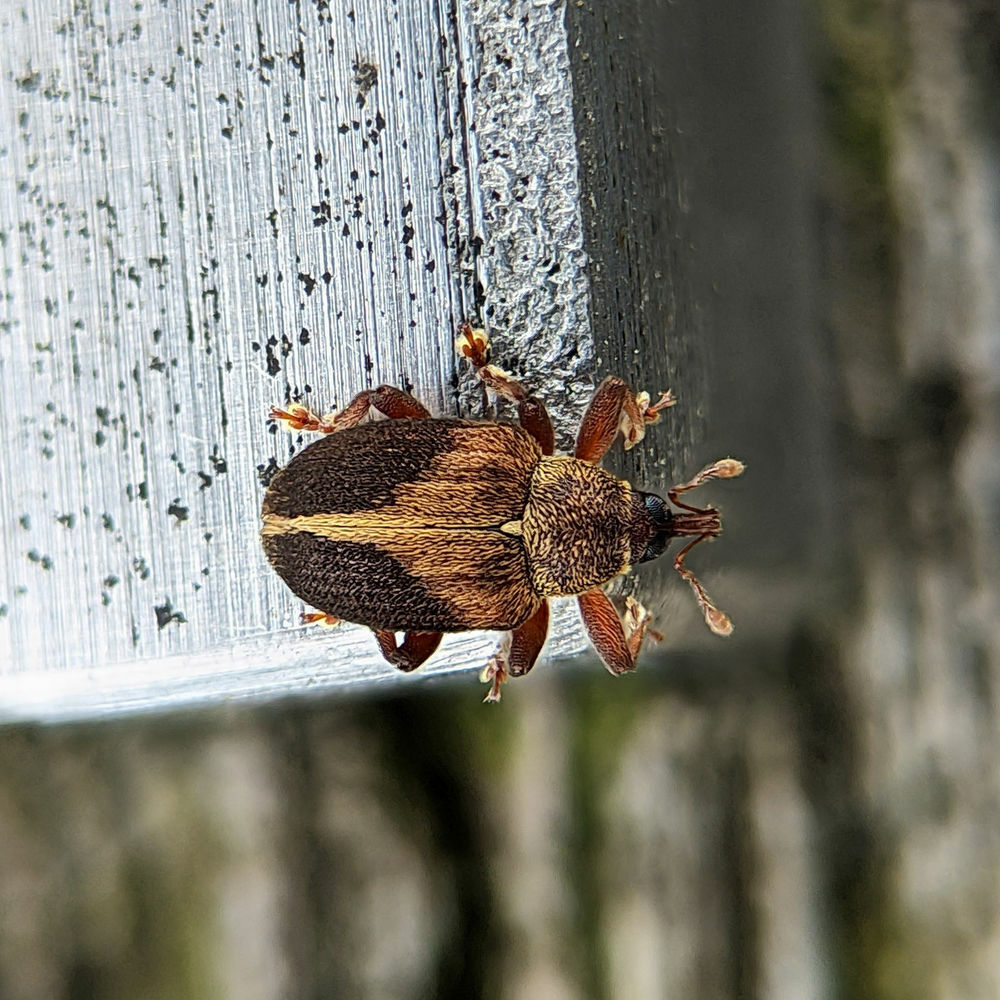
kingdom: Animalia
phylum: Arthropoda
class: Insecta
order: Coleoptera
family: Curculionidae
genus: Lignyodes
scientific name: Lignyodes enucleator
